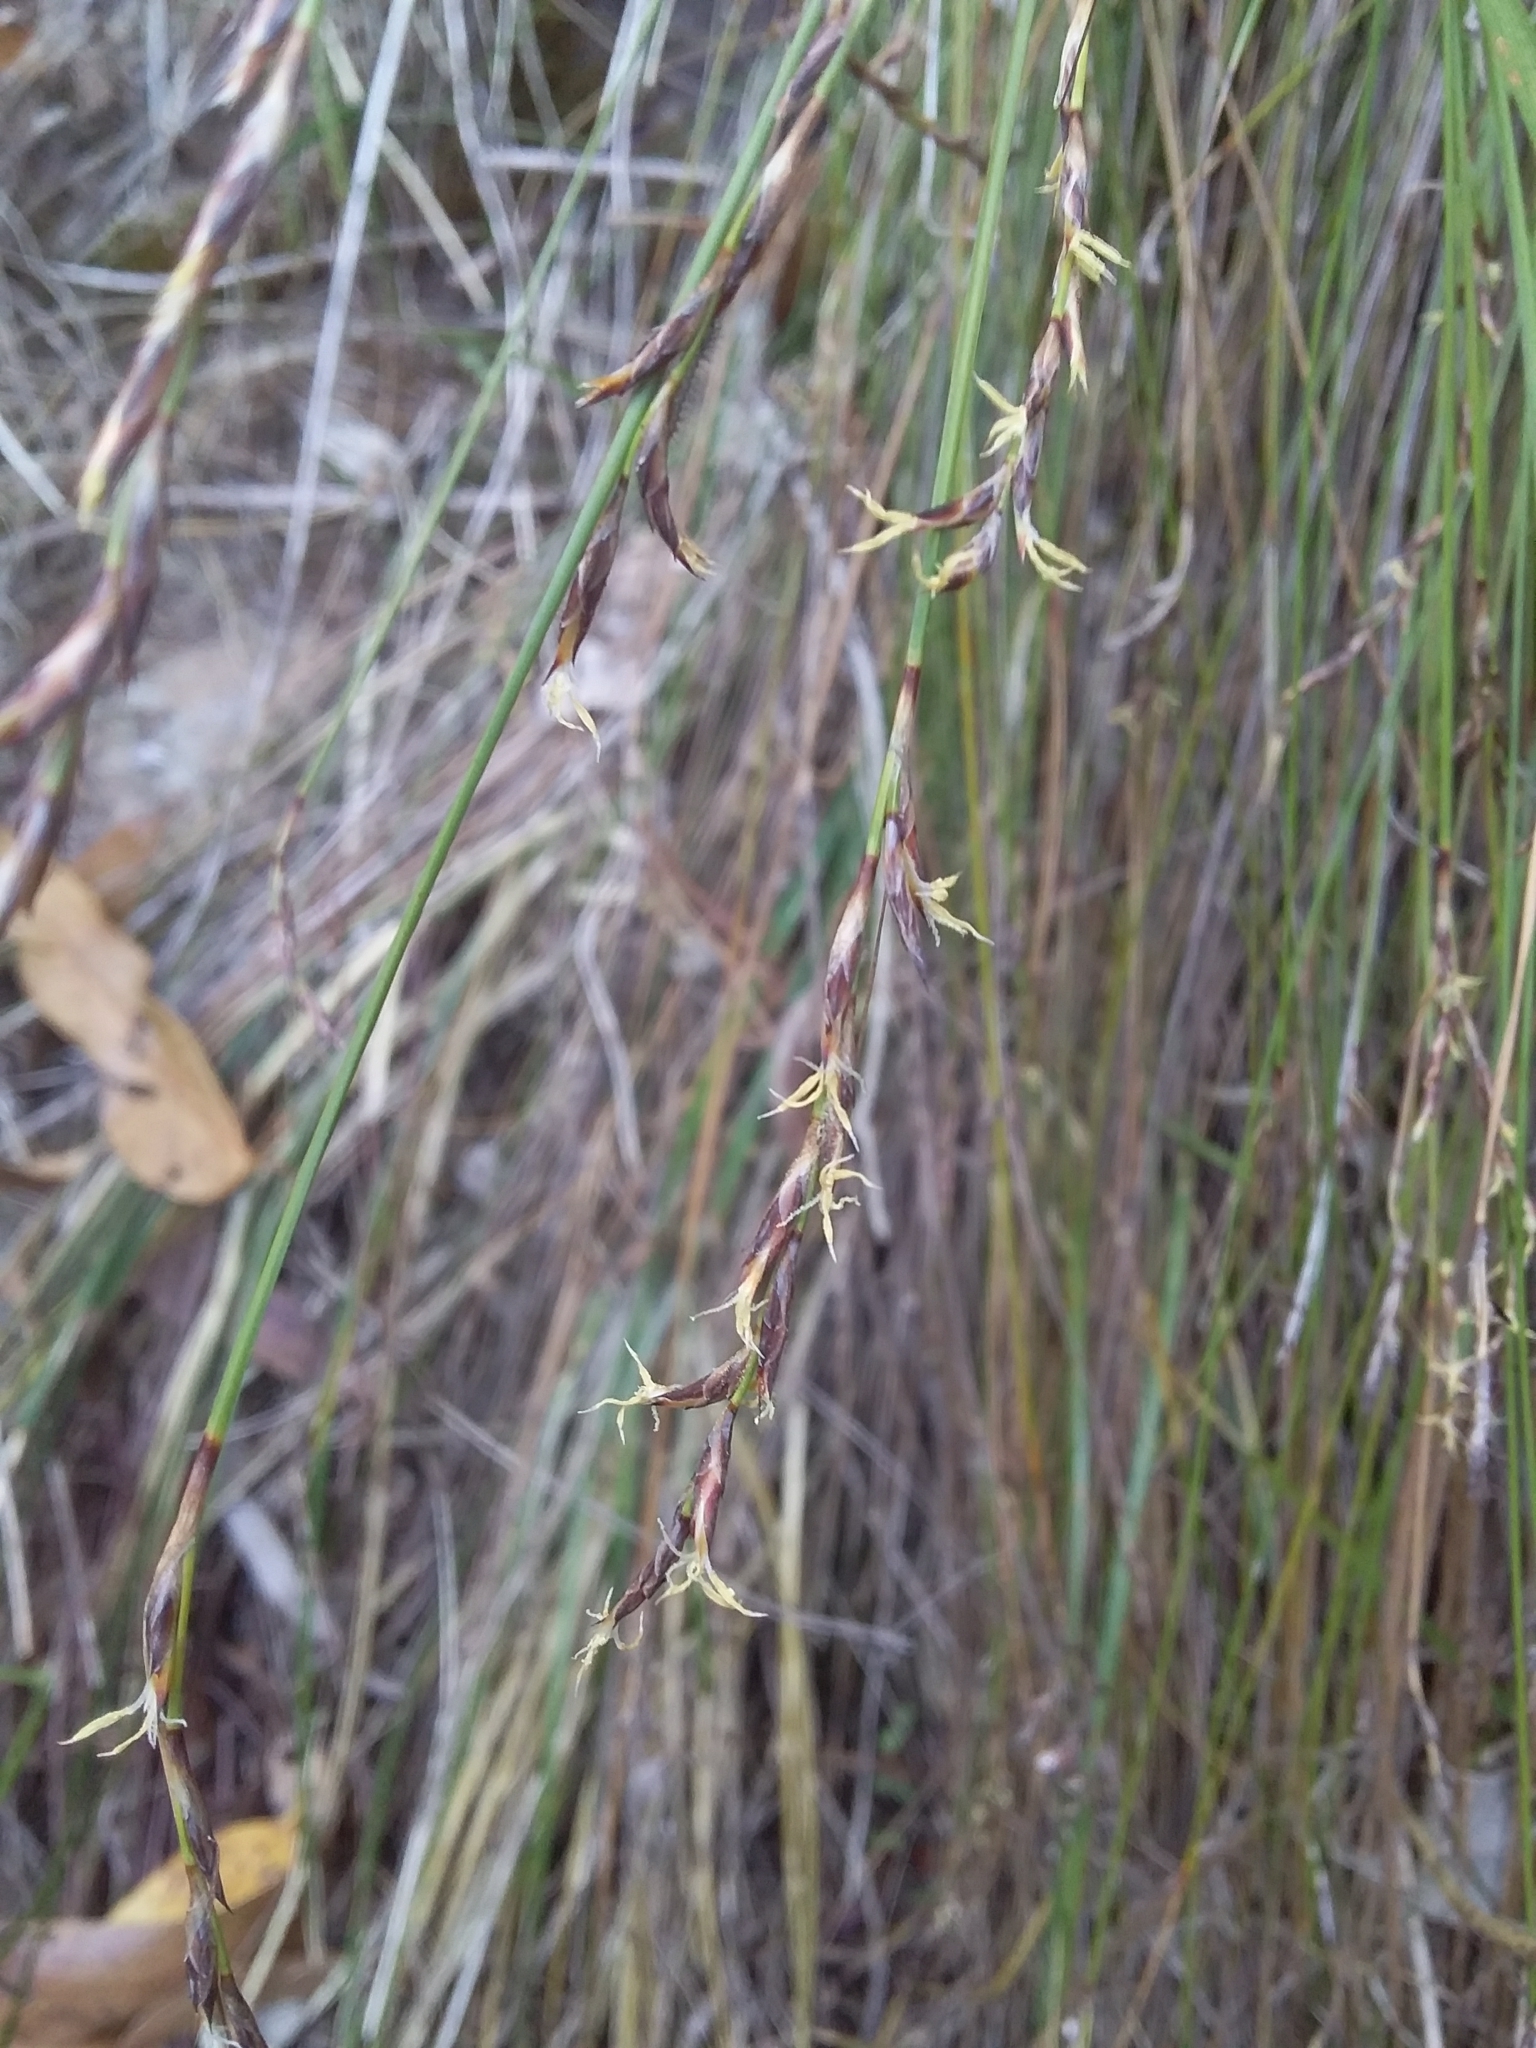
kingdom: Plantae
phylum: Tracheophyta
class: Liliopsida
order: Poales
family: Cyperaceae
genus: Lepidosperma
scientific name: Lepidosperma semiteres
